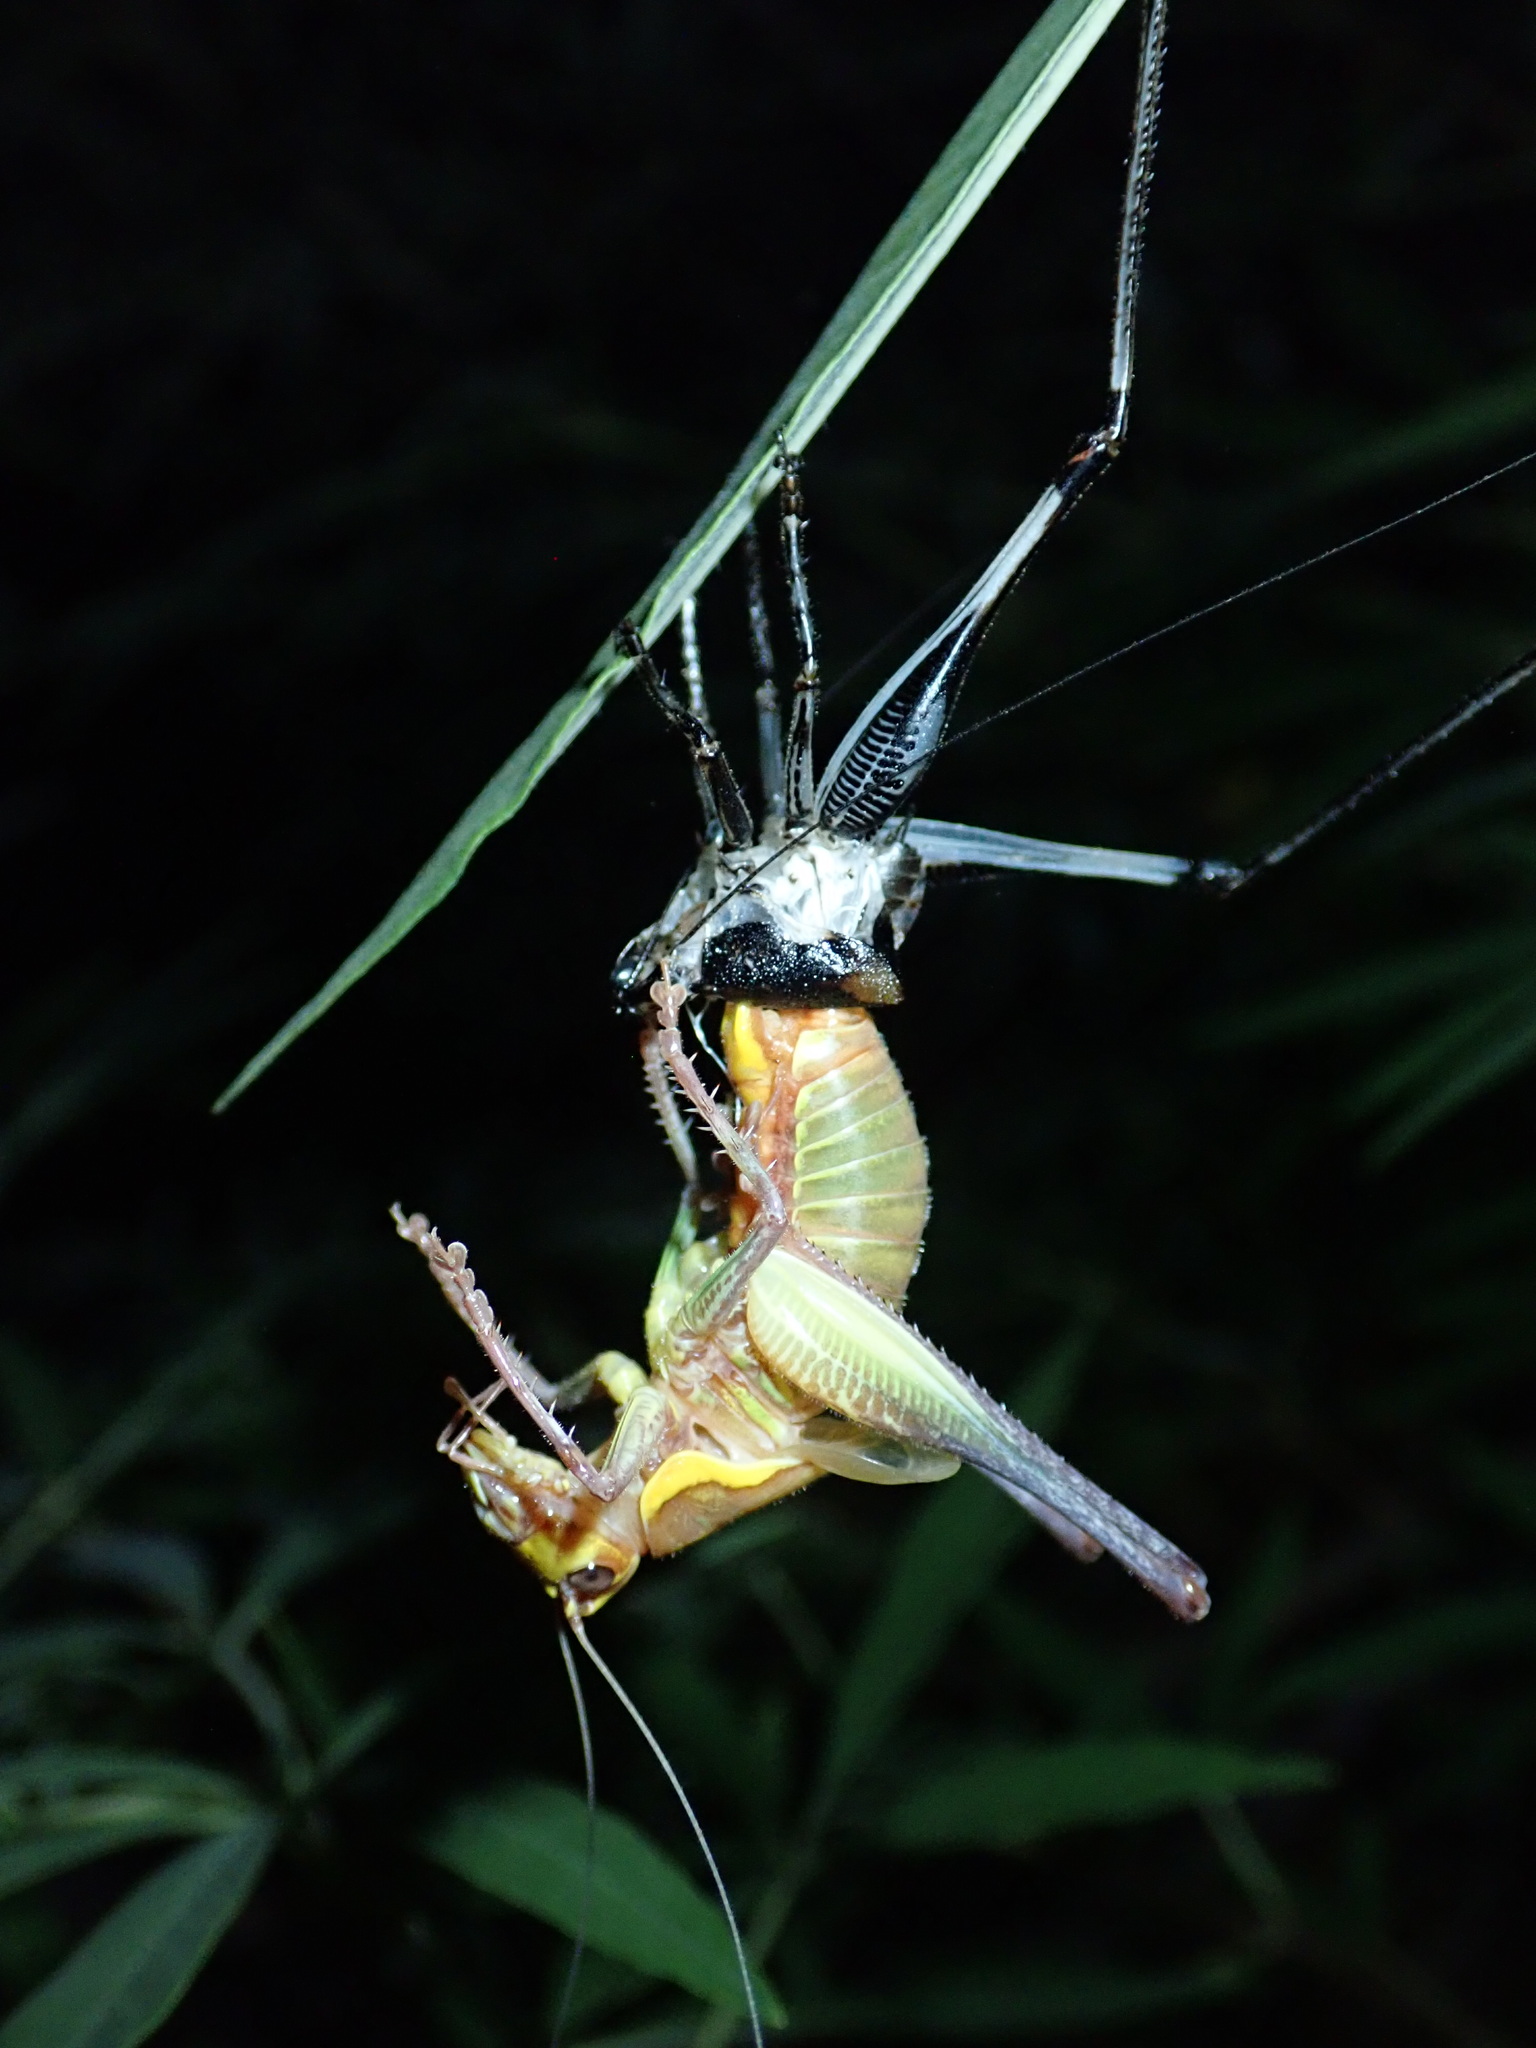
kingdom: Animalia
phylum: Arthropoda
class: Insecta
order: Orthoptera
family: Tettigoniidae
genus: Eupholidoptera
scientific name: Eupholidoptera schmidti
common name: Schmidt's marbled bush-cricket
